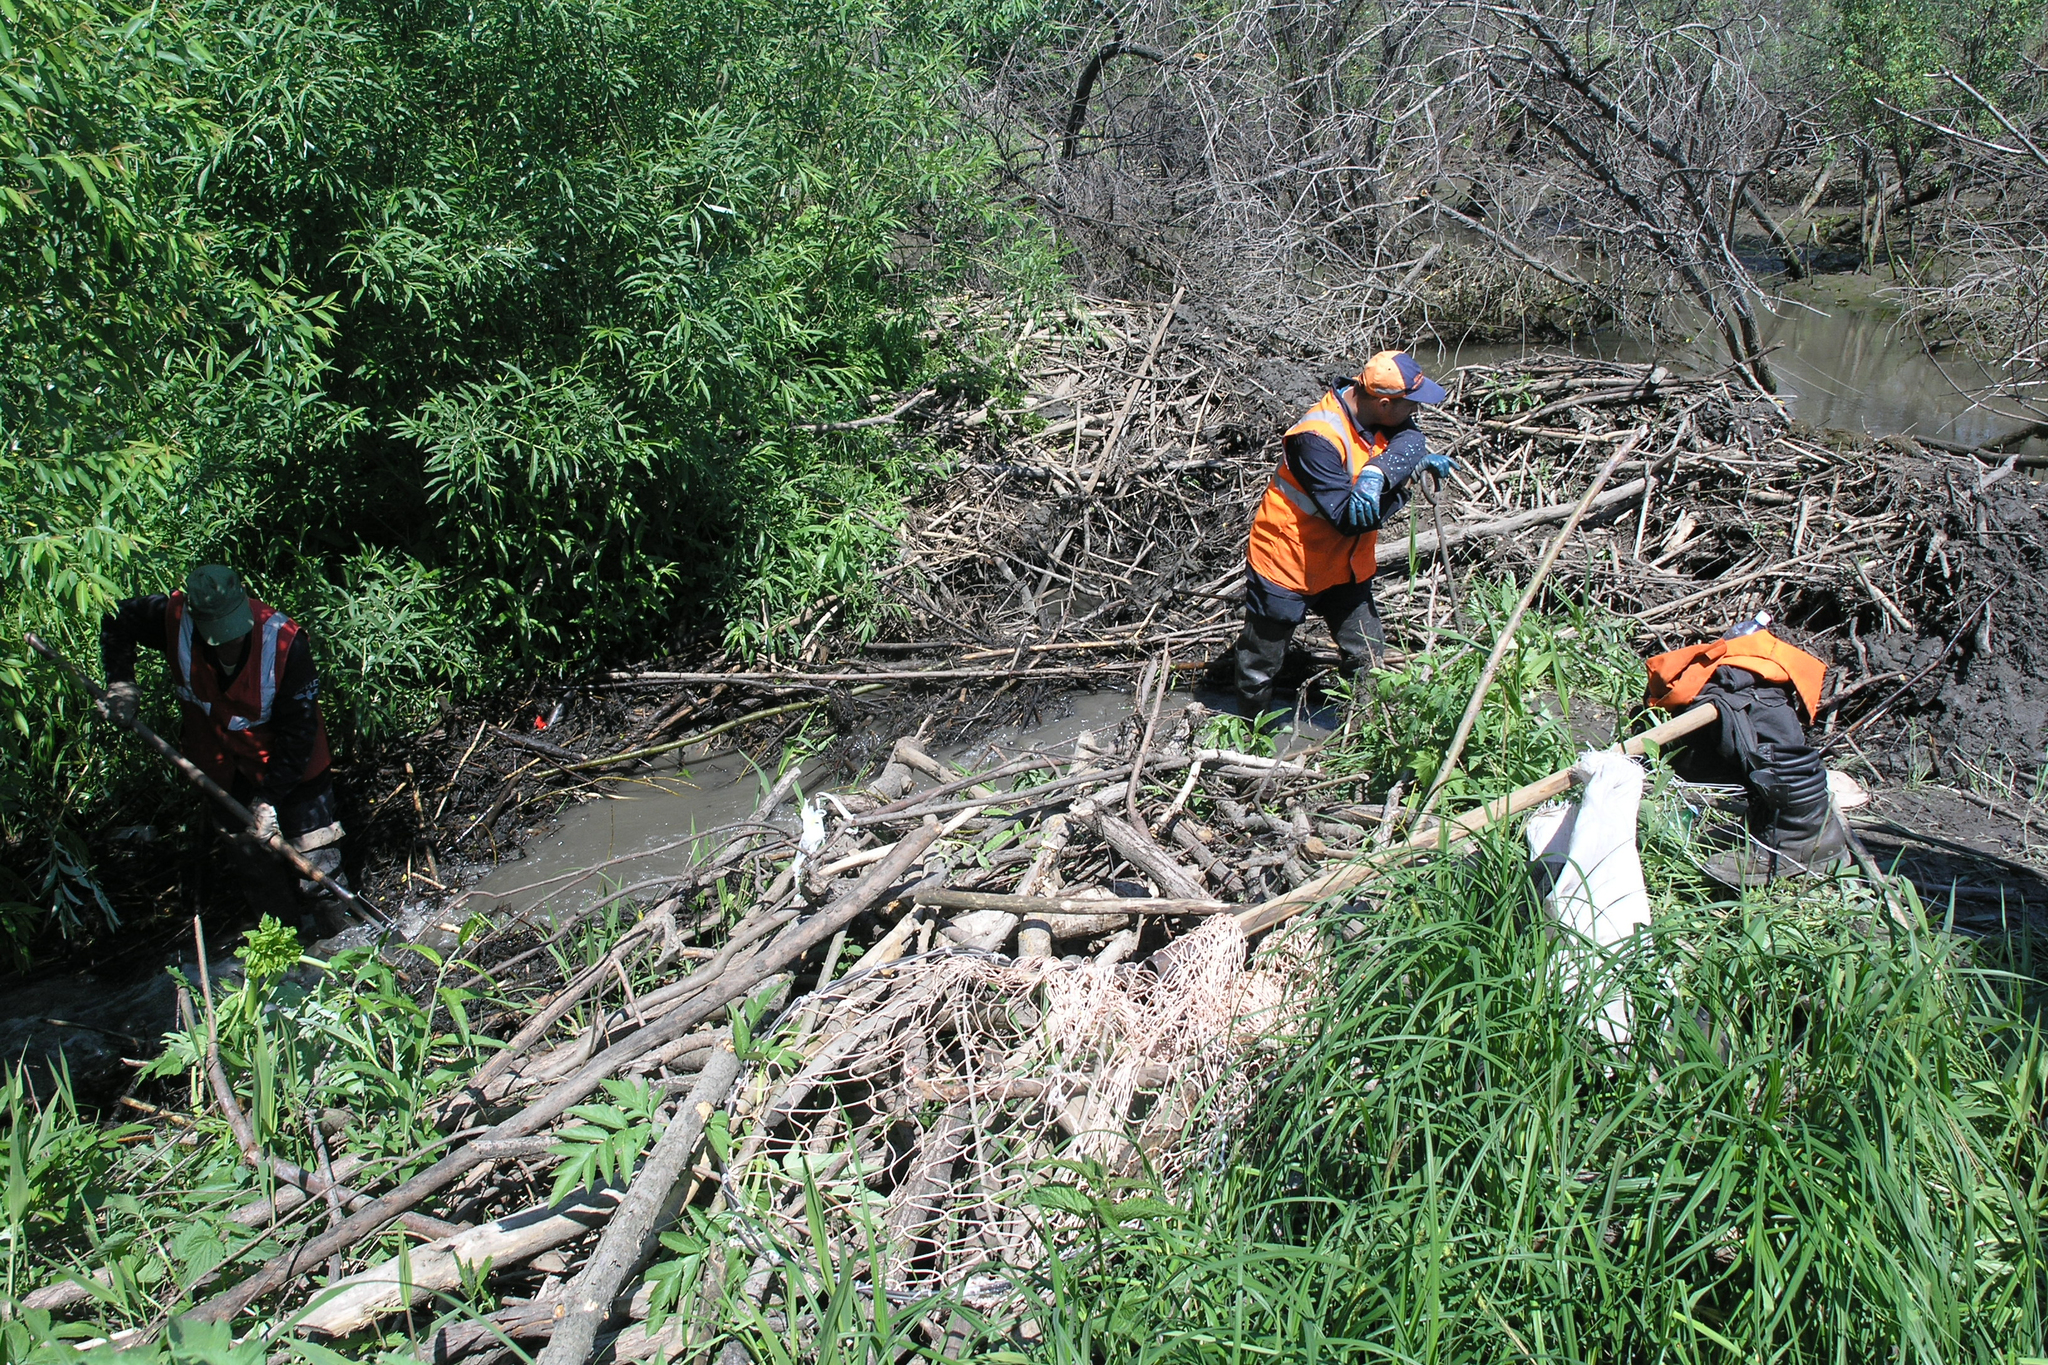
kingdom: Animalia
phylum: Chordata
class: Mammalia
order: Rodentia
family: Castoridae
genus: Castor
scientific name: Castor fiber
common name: Eurasian beaver
